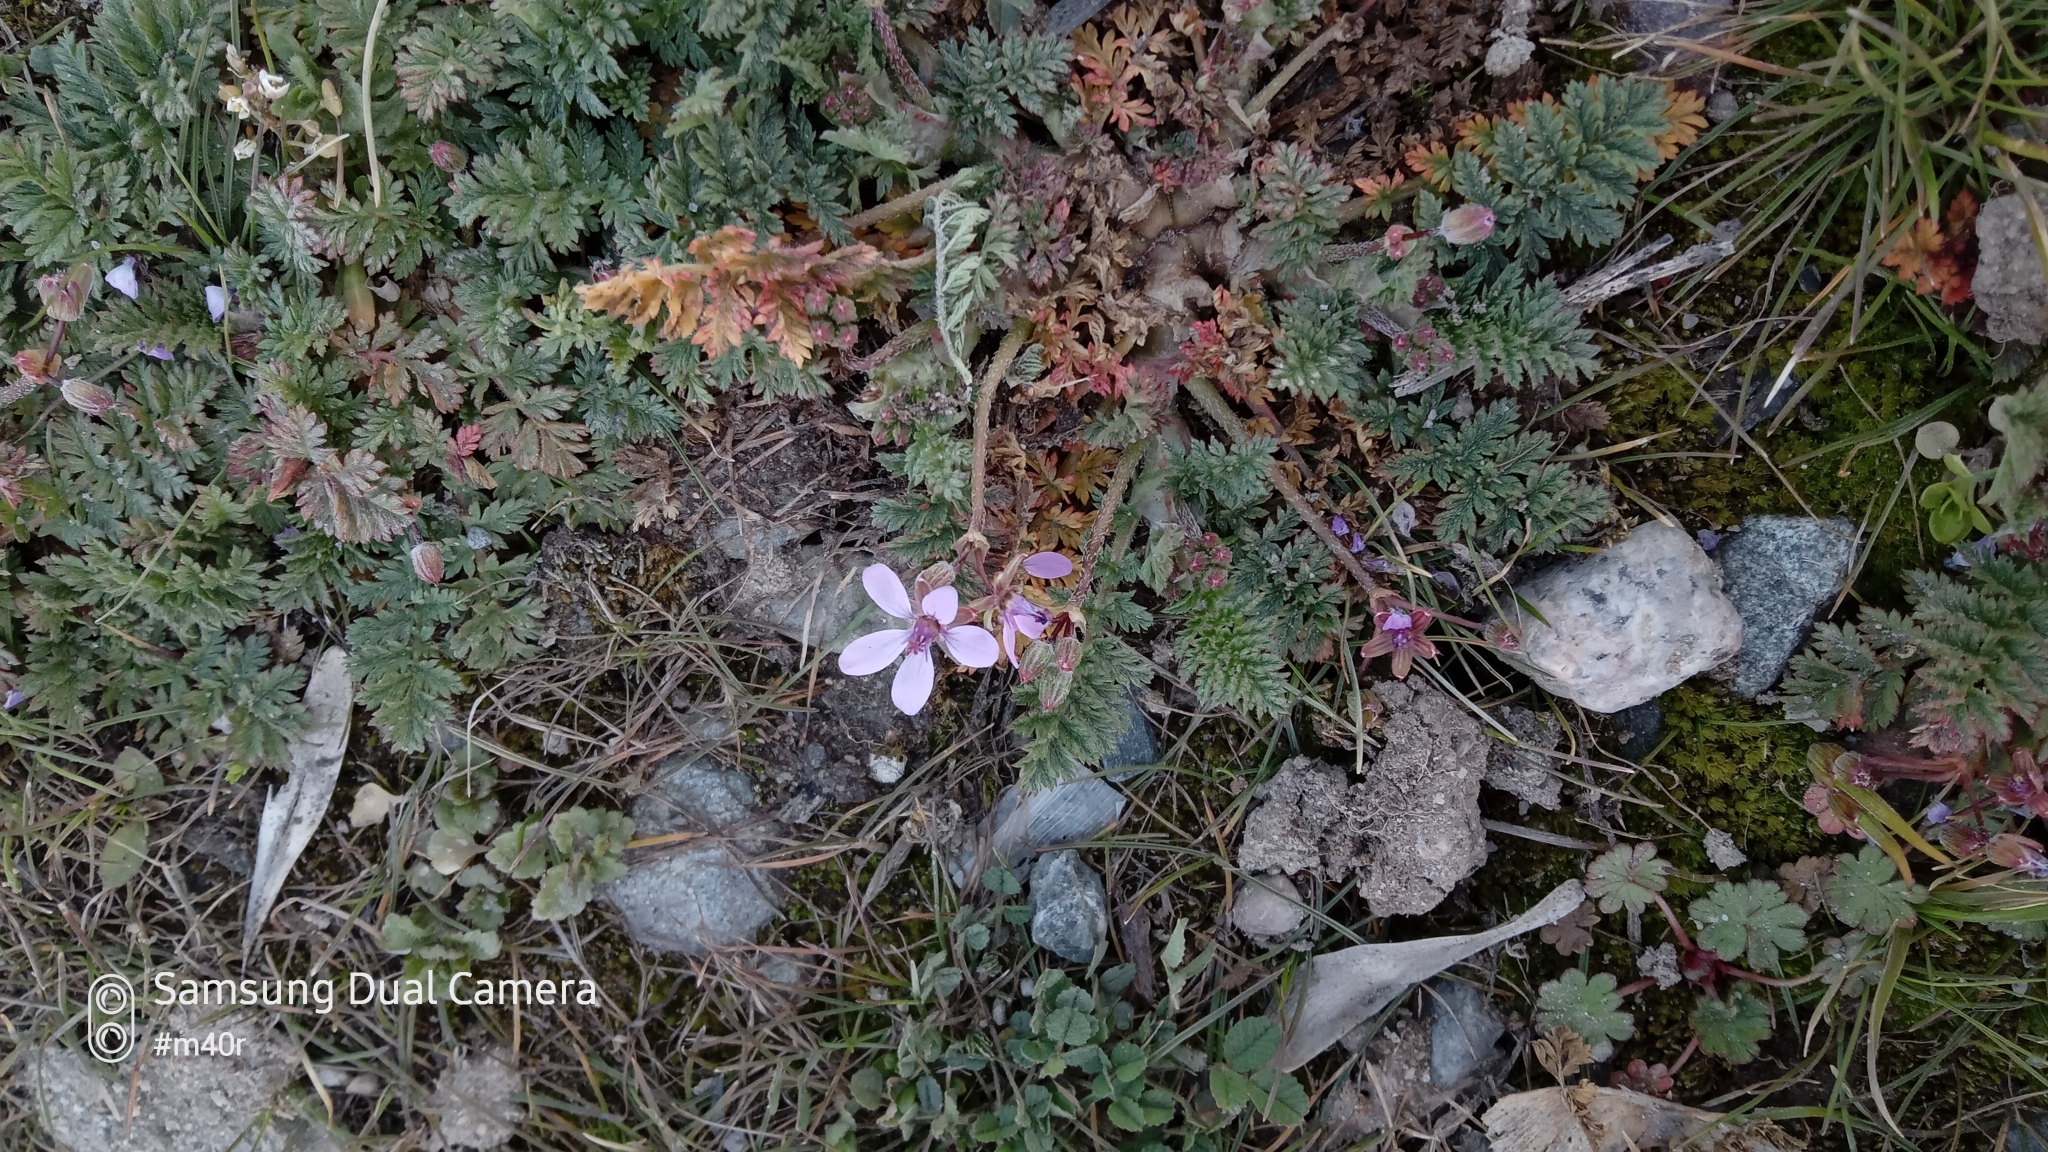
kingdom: Plantae
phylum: Tracheophyta
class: Magnoliopsida
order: Geraniales
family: Geraniaceae
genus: Erodium
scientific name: Erodium cicutarium
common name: Common stork's-bill
